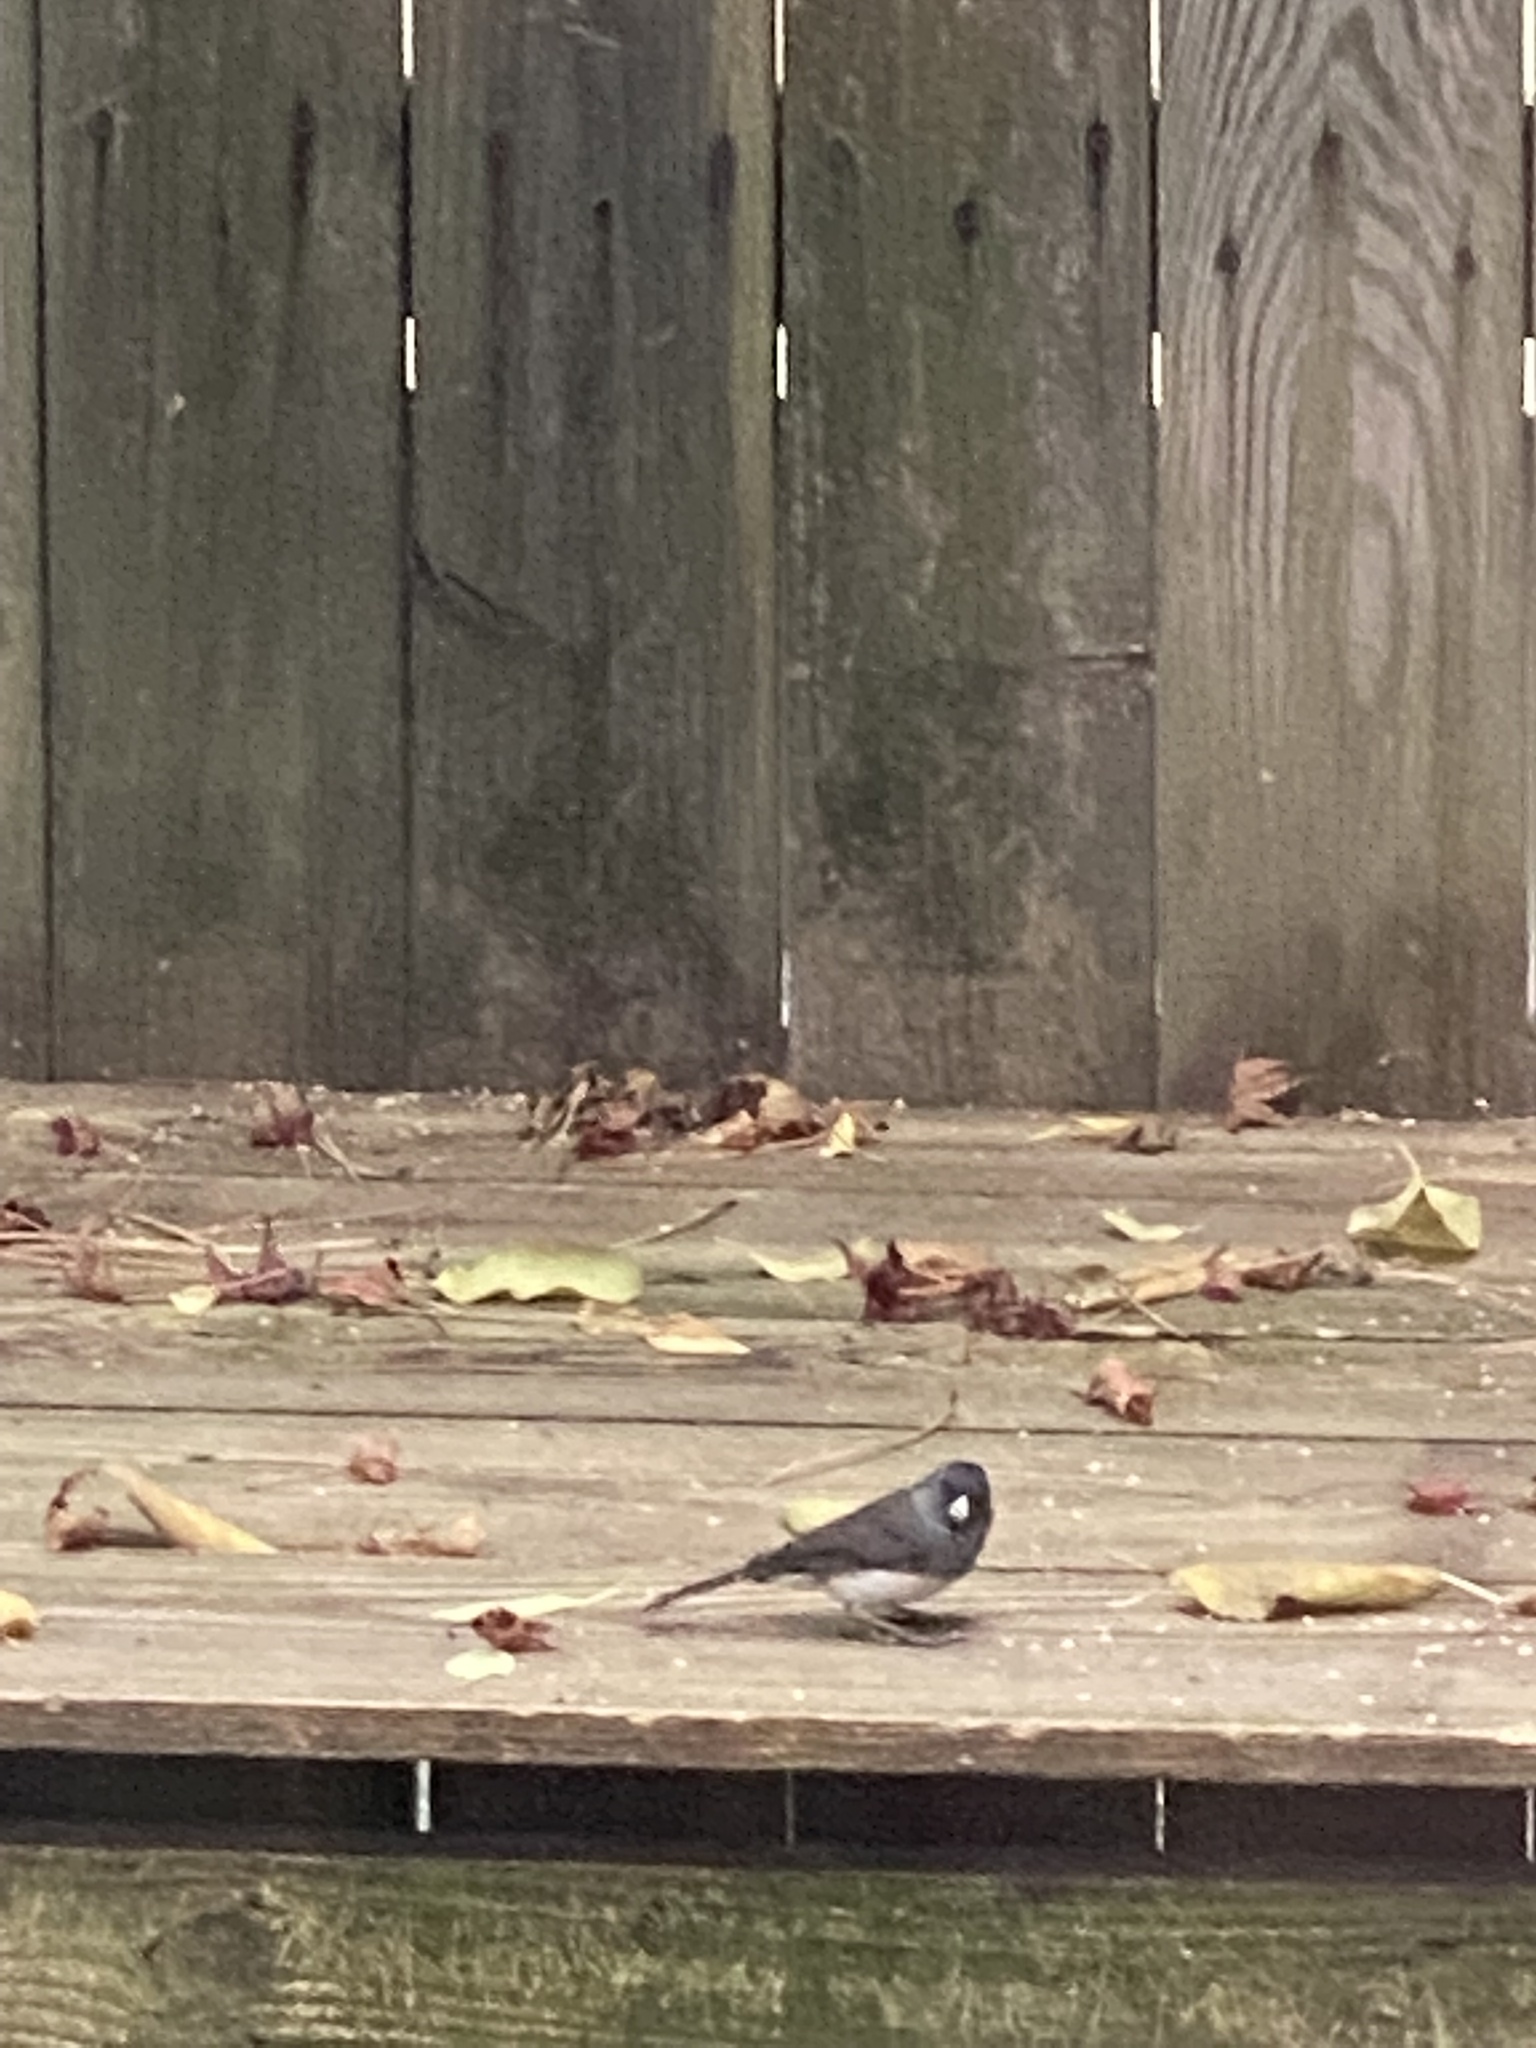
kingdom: Animalia
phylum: Chordata
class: Aves
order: Passeriformes
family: Passerellidae
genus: Junco
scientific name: Junco hyemalis
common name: Dark-eyed junco
